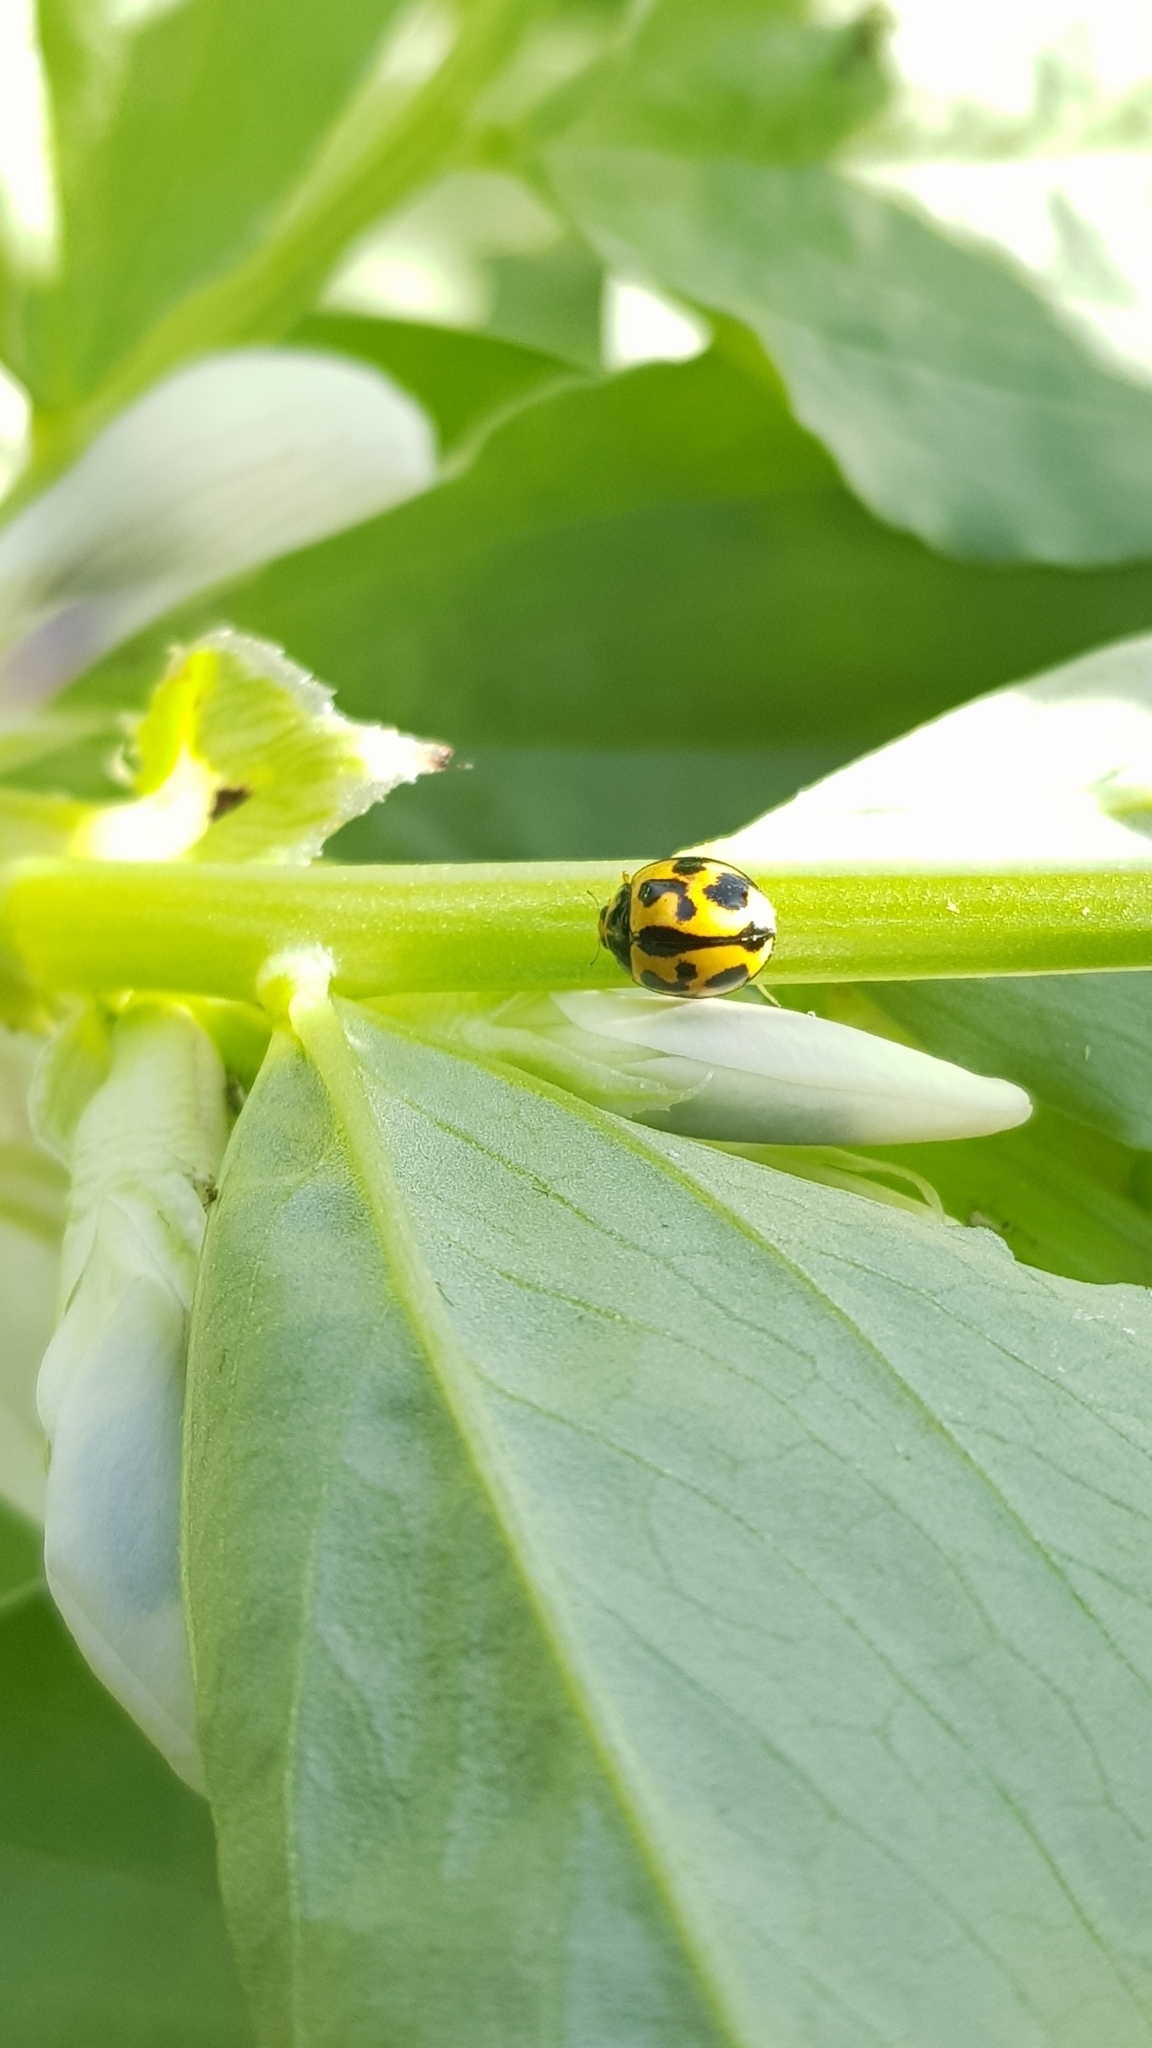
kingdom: Animalia
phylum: Arthropoda
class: Insecta
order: Coleoptera
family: Coccinellidae
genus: Coelophora
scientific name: Coelophora inaequalis
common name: Common australian lady beetle
